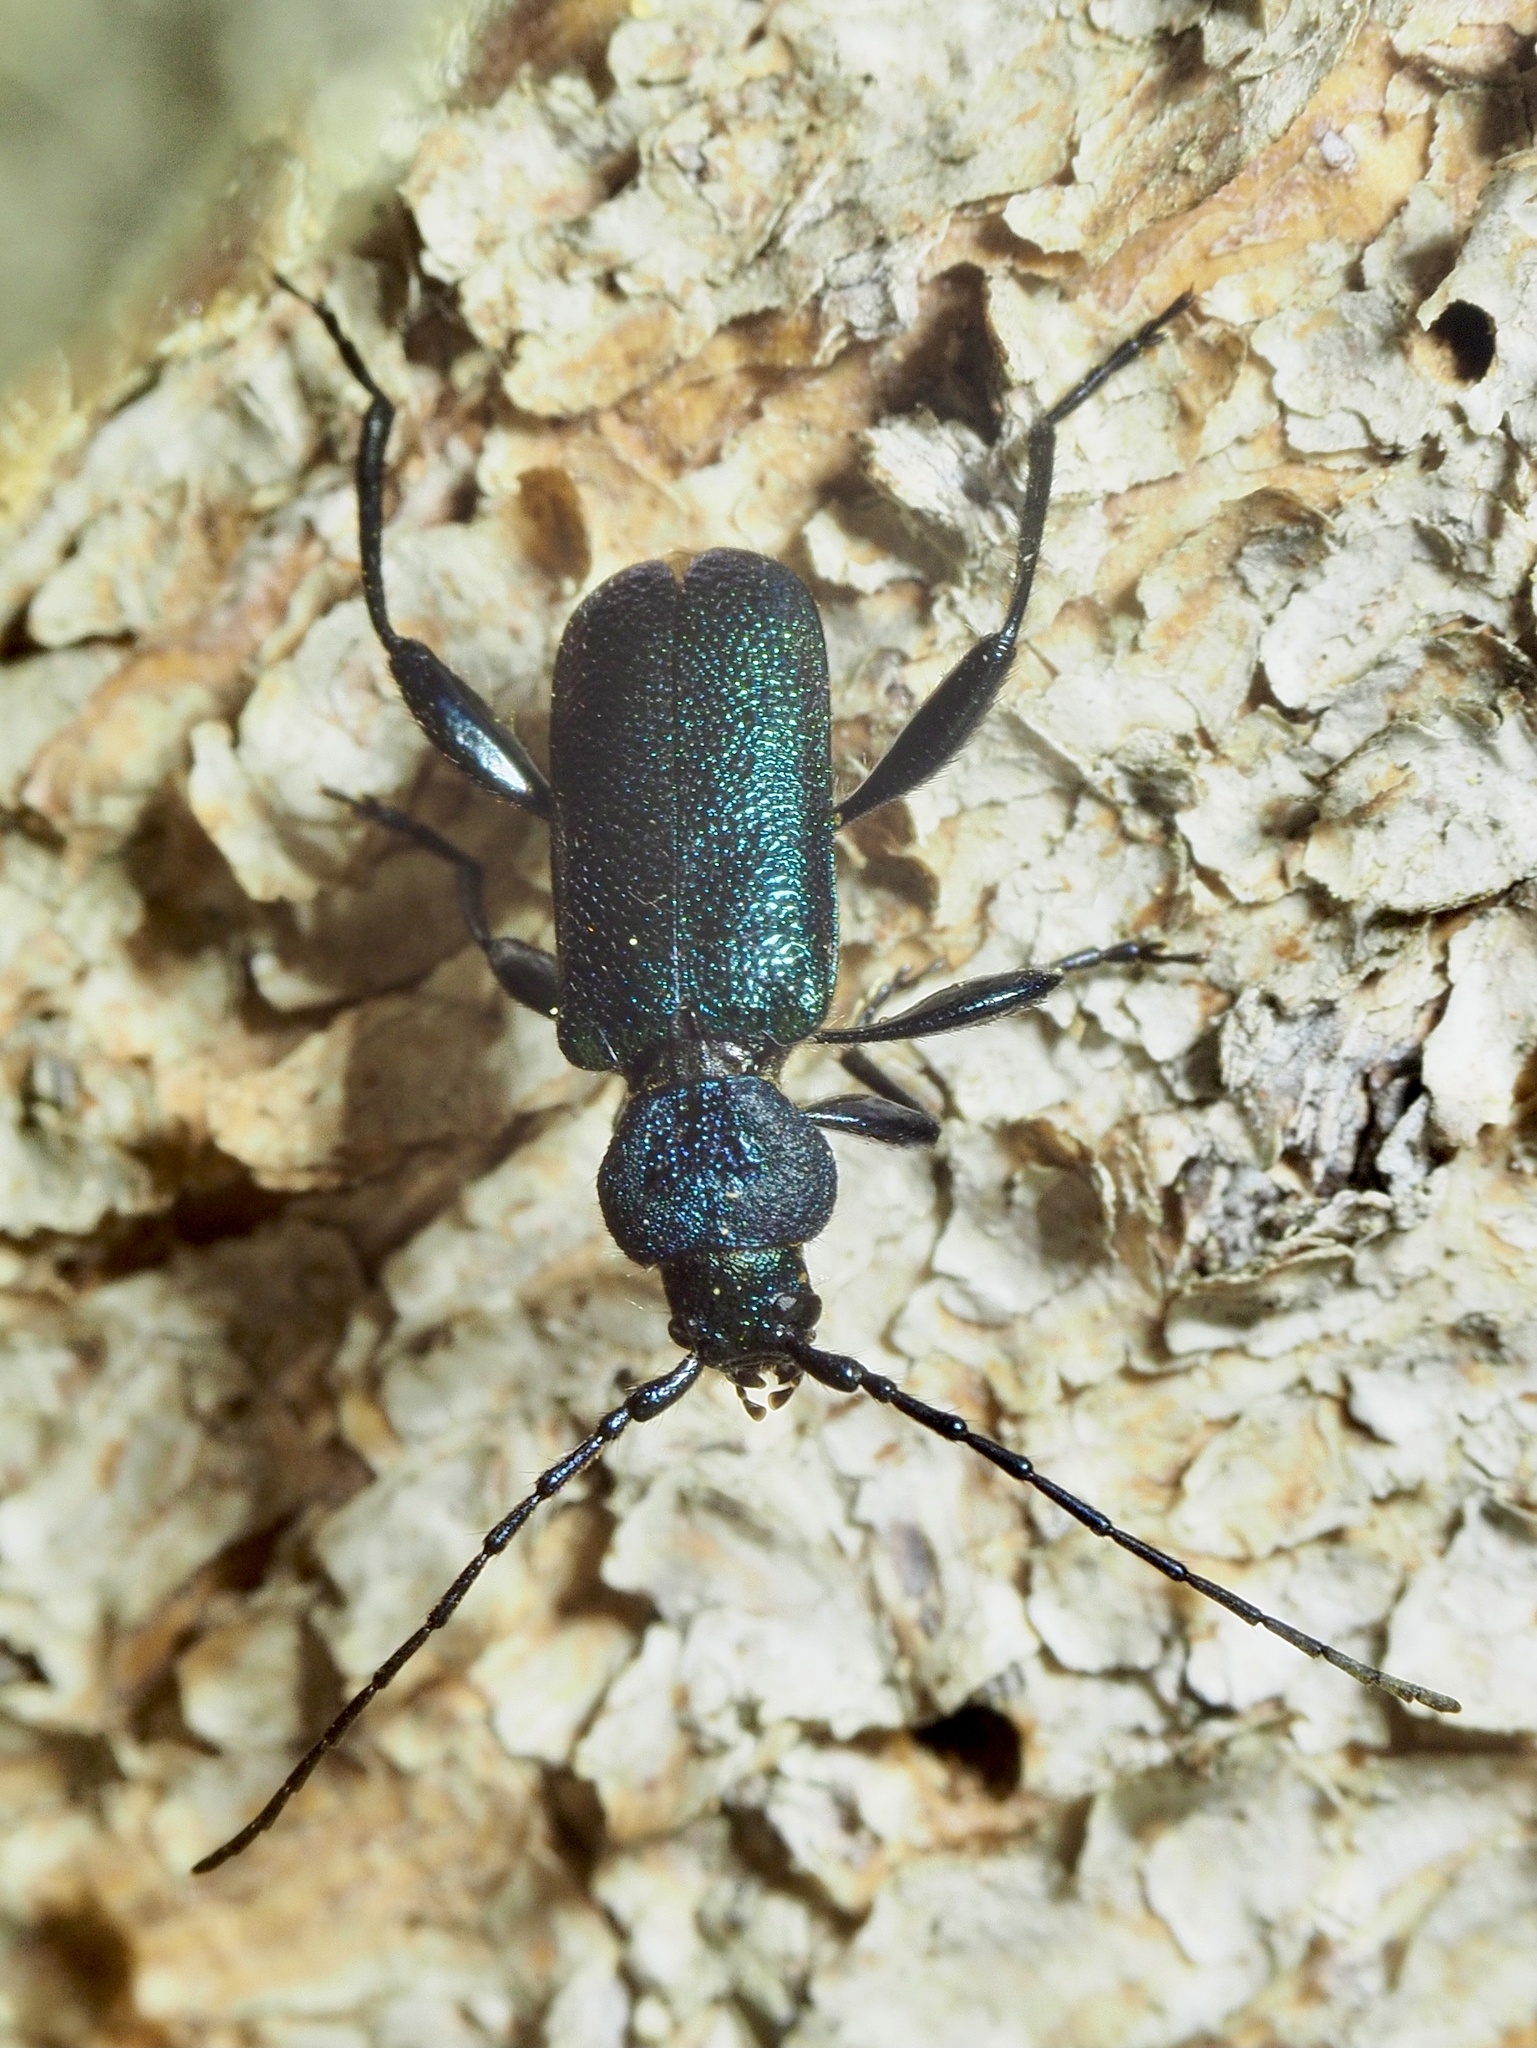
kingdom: Animalia
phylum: Arthropoda
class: Insecta
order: Coleoptera
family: Cerambycidae
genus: Callidium
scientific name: Callidium violaceum
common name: Violet tanbark beetle
